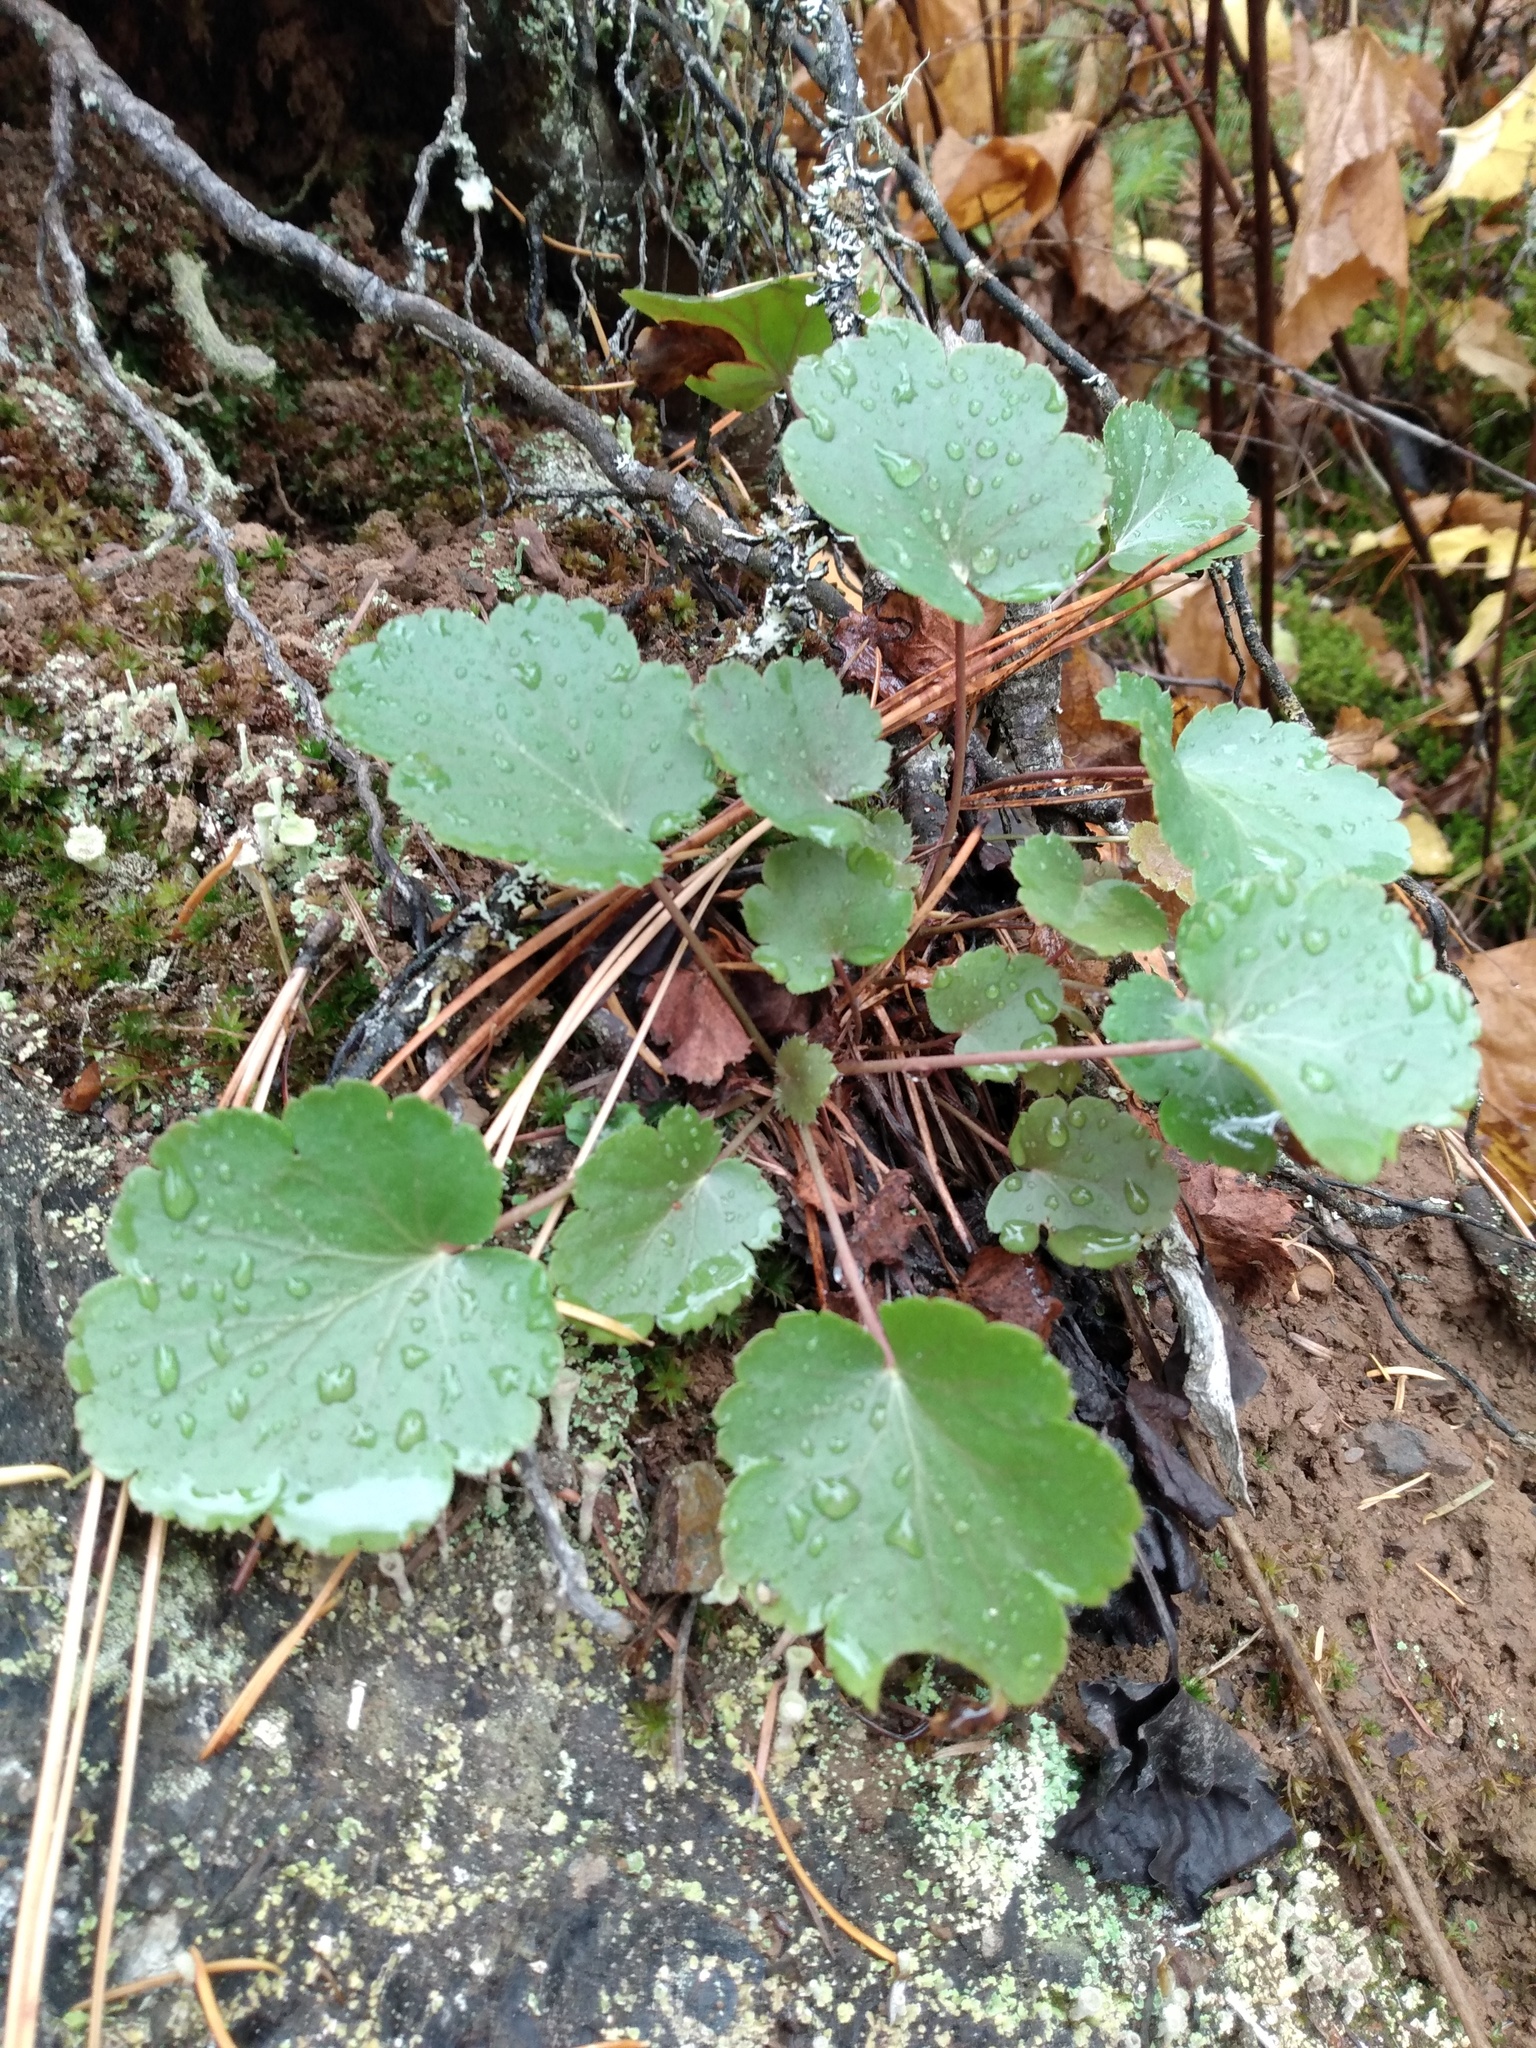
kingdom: Plantae
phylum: Tracheophyta
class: Magnoliopsida
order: Saxifragales
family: Saxifragaceae
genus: Heuchera
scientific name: Heuchera cylindrica
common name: Mat alumroot
